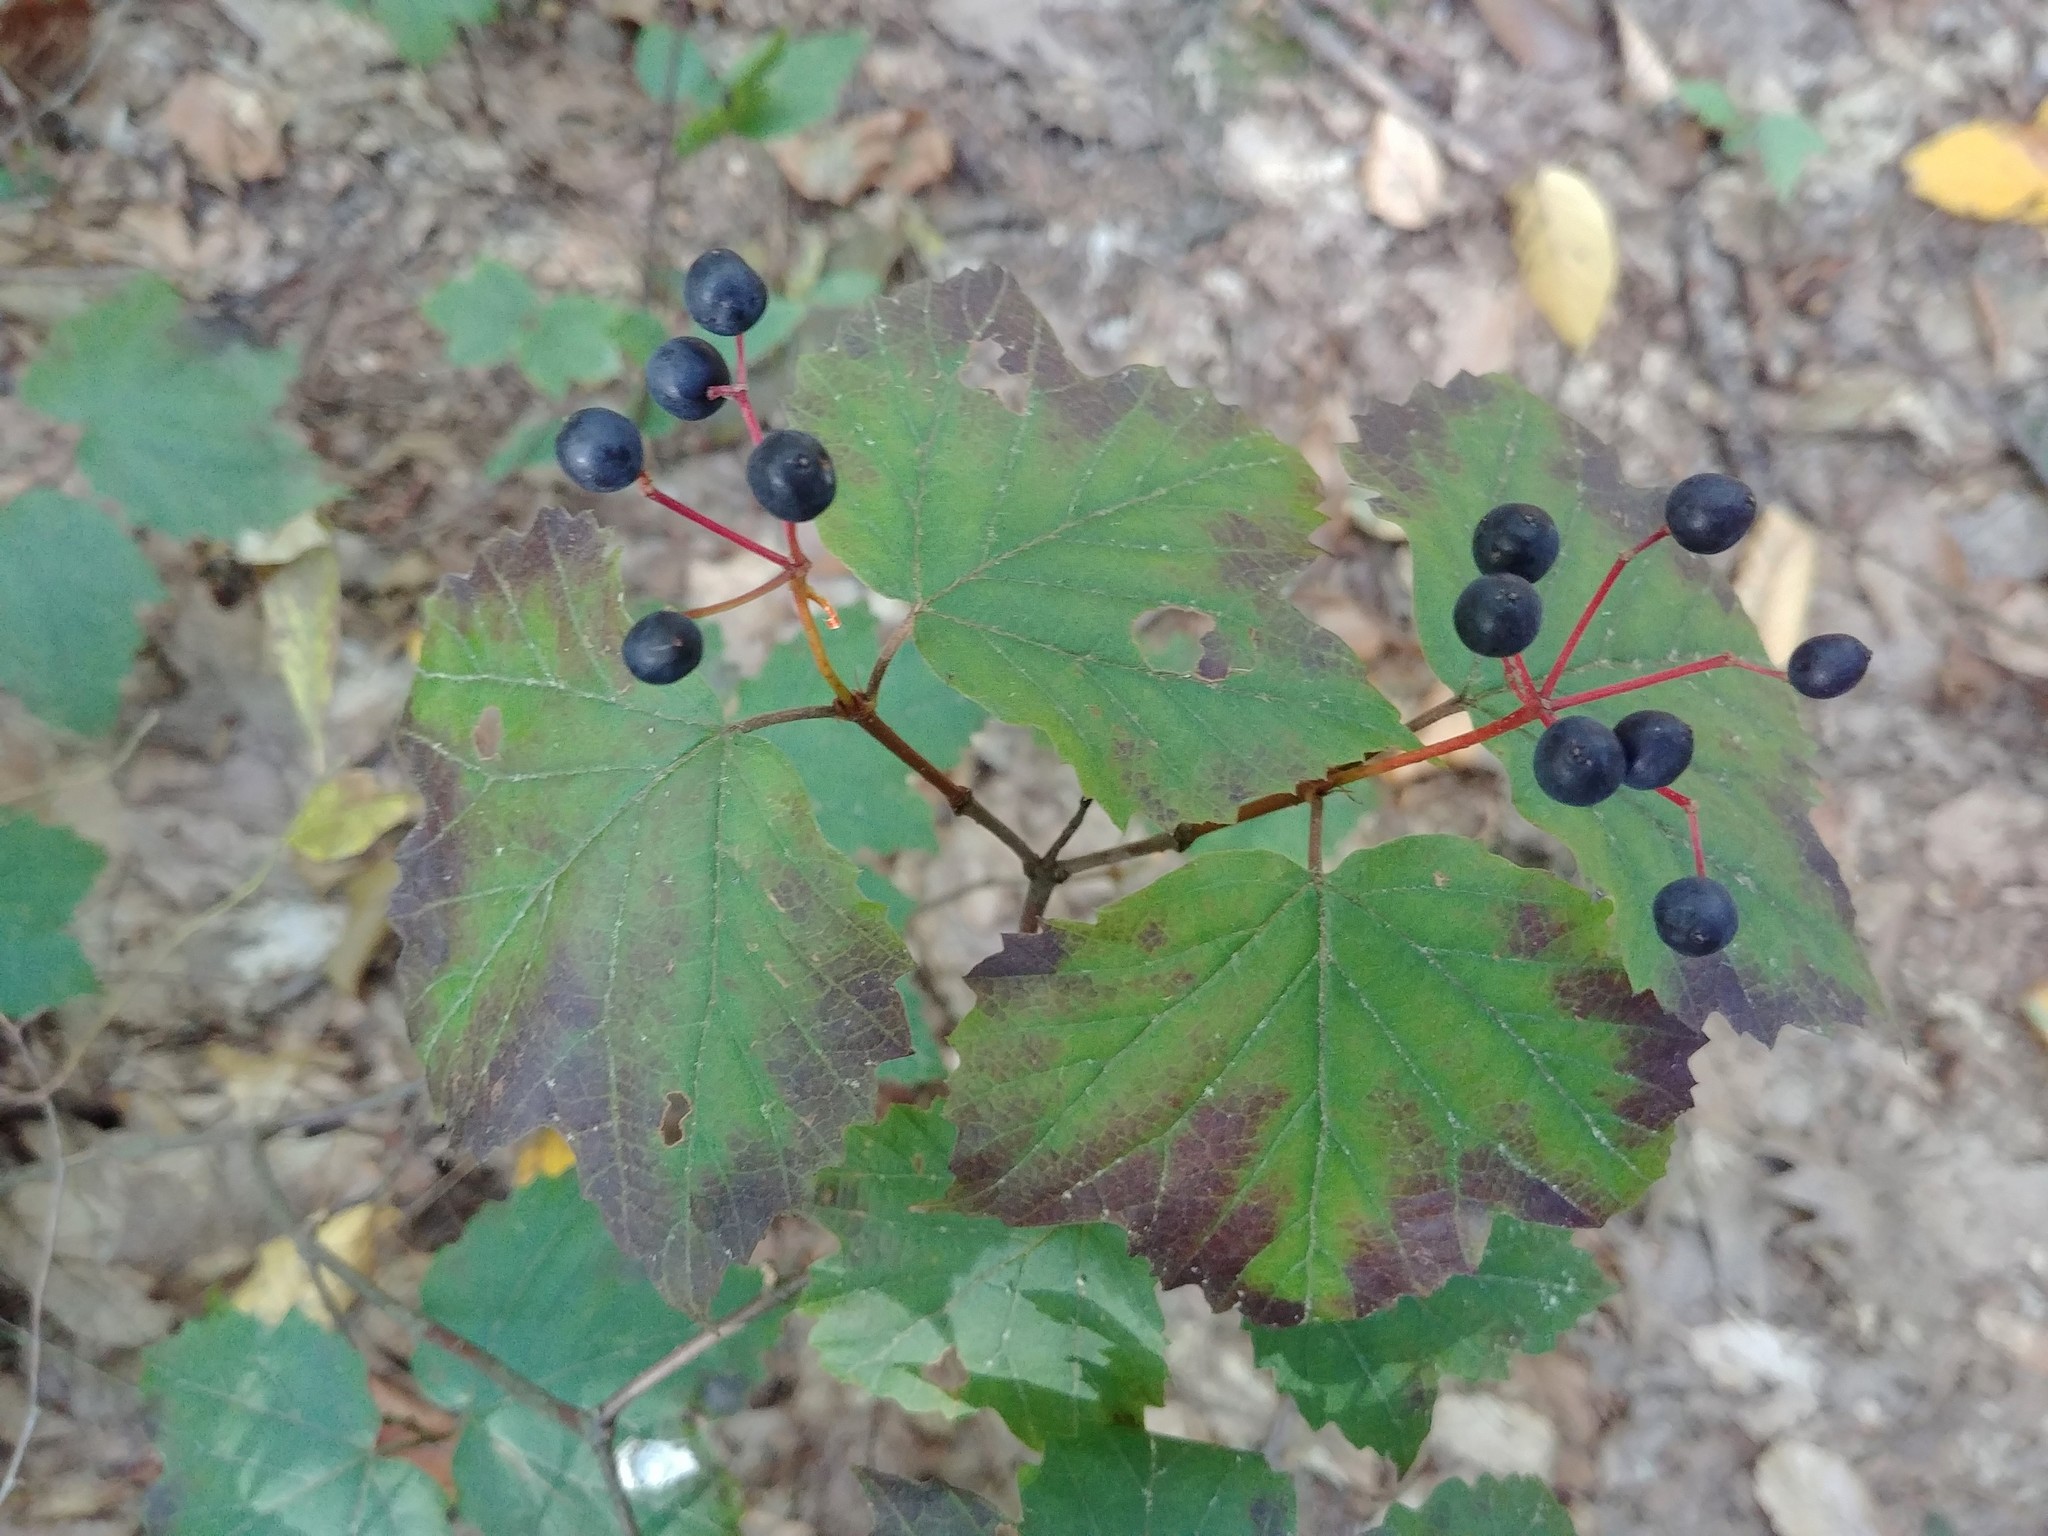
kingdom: Plantae
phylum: Tracheophyta
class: Magnoliopsida
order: Dipsacales
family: Viburnaceae
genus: Viburnum
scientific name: Viburnum acerifolium
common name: Dockmackie
